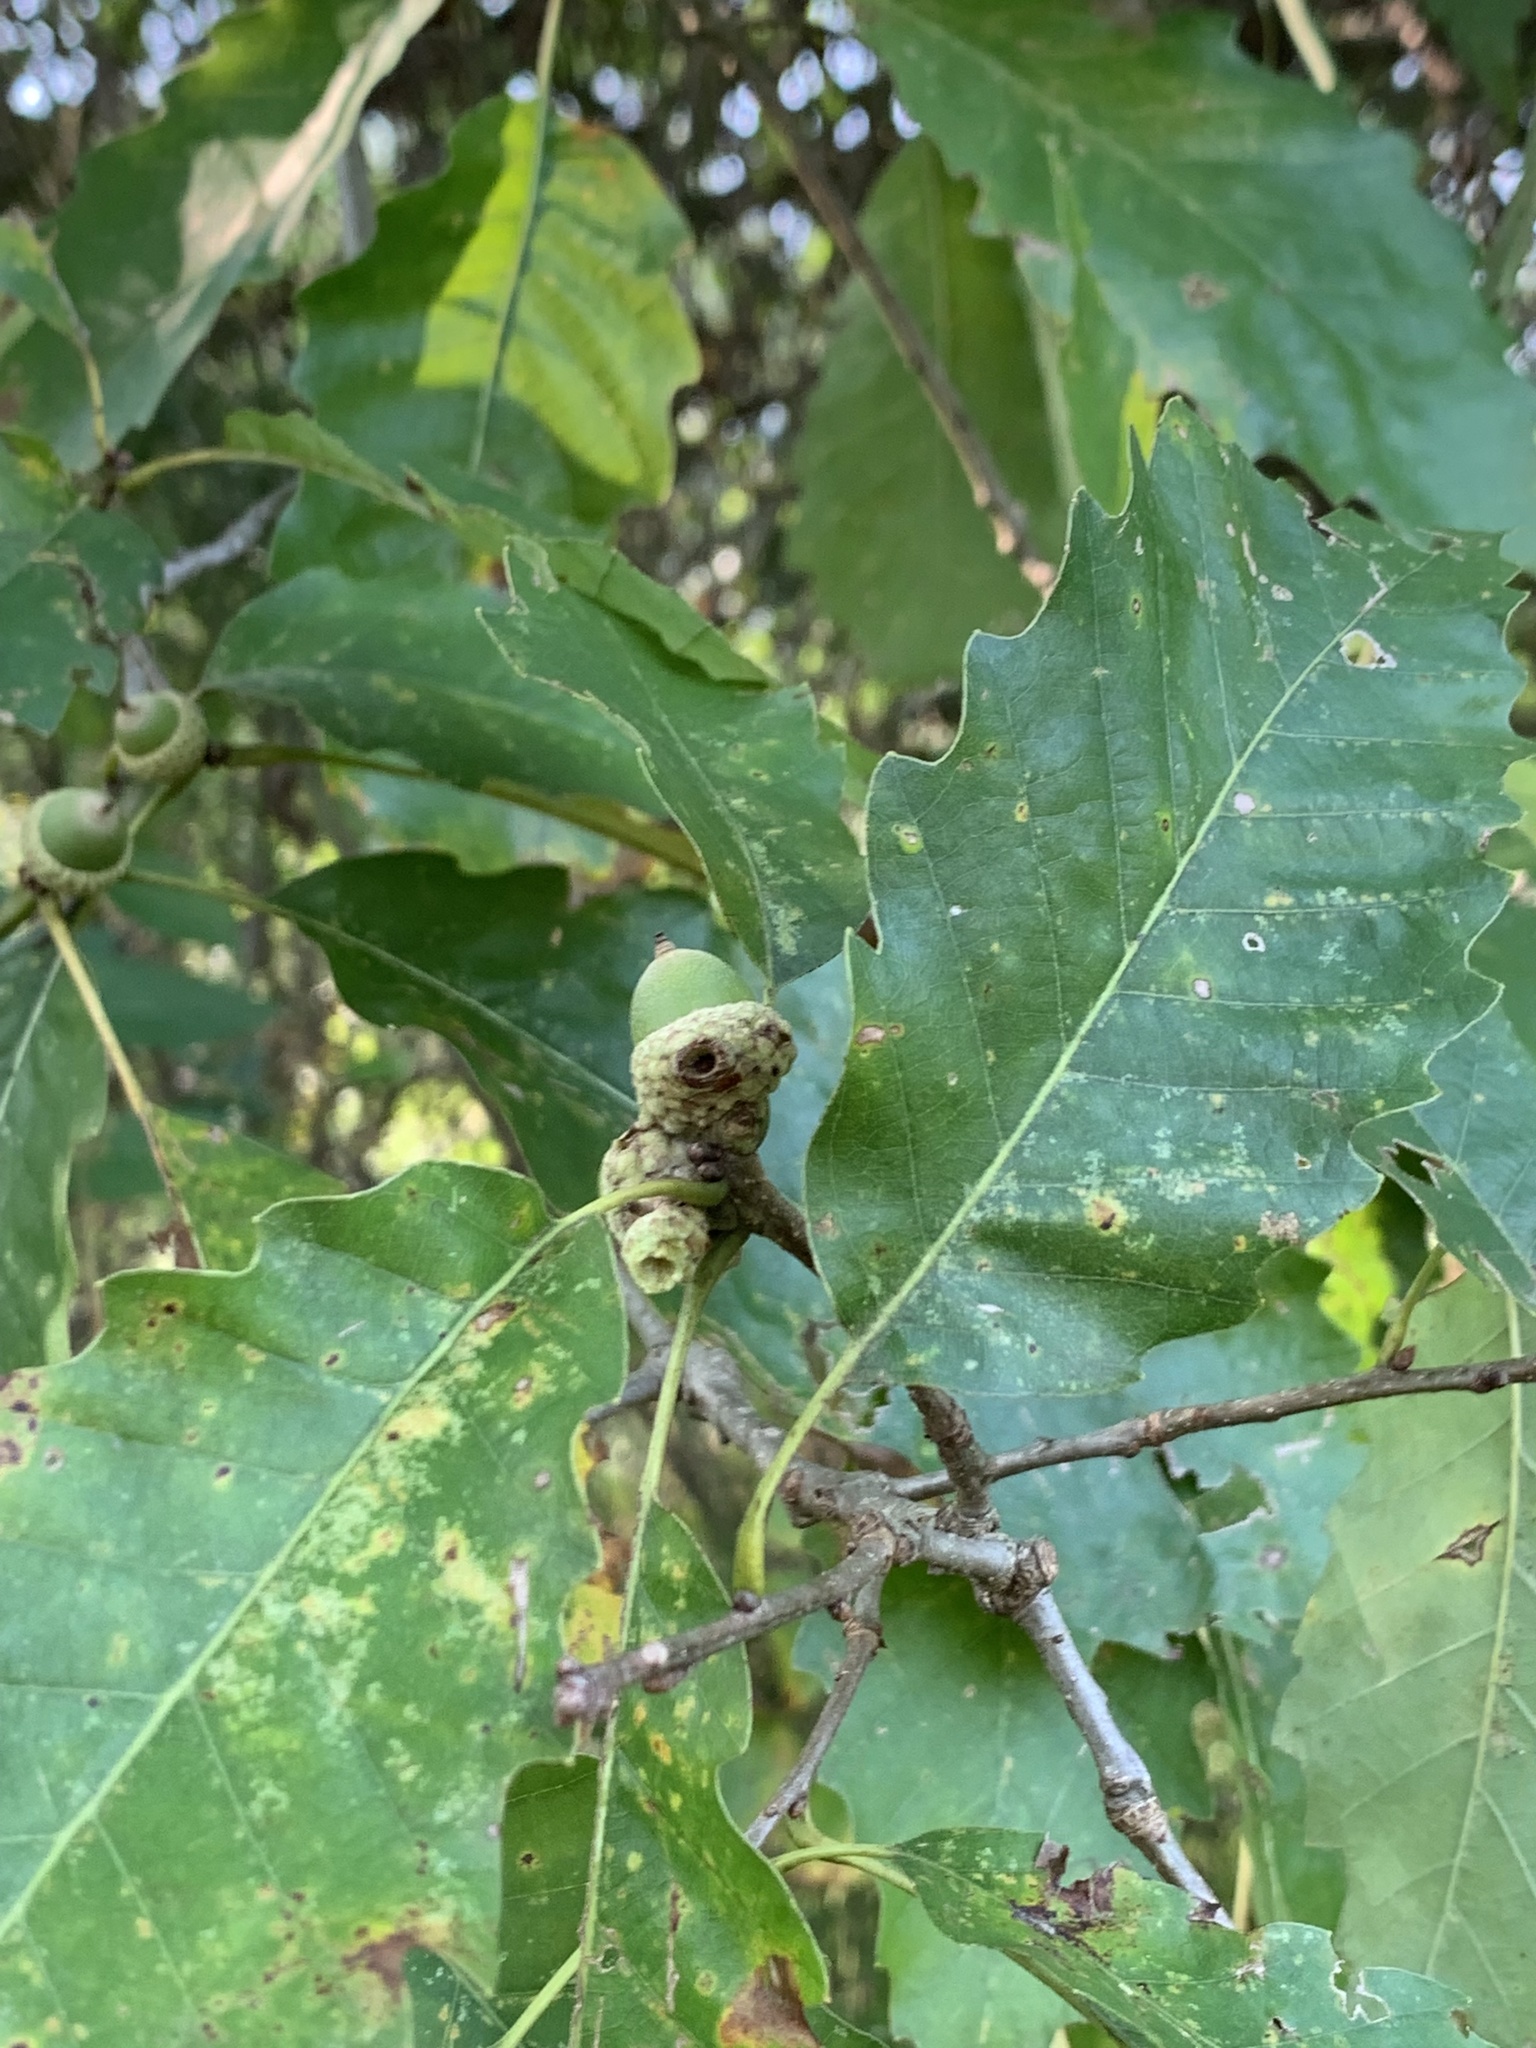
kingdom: Animalia
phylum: Arthropoda
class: Insecta
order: Hymenoptera
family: Cynipidae
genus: Callirhytis
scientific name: Callirhytis glandium
